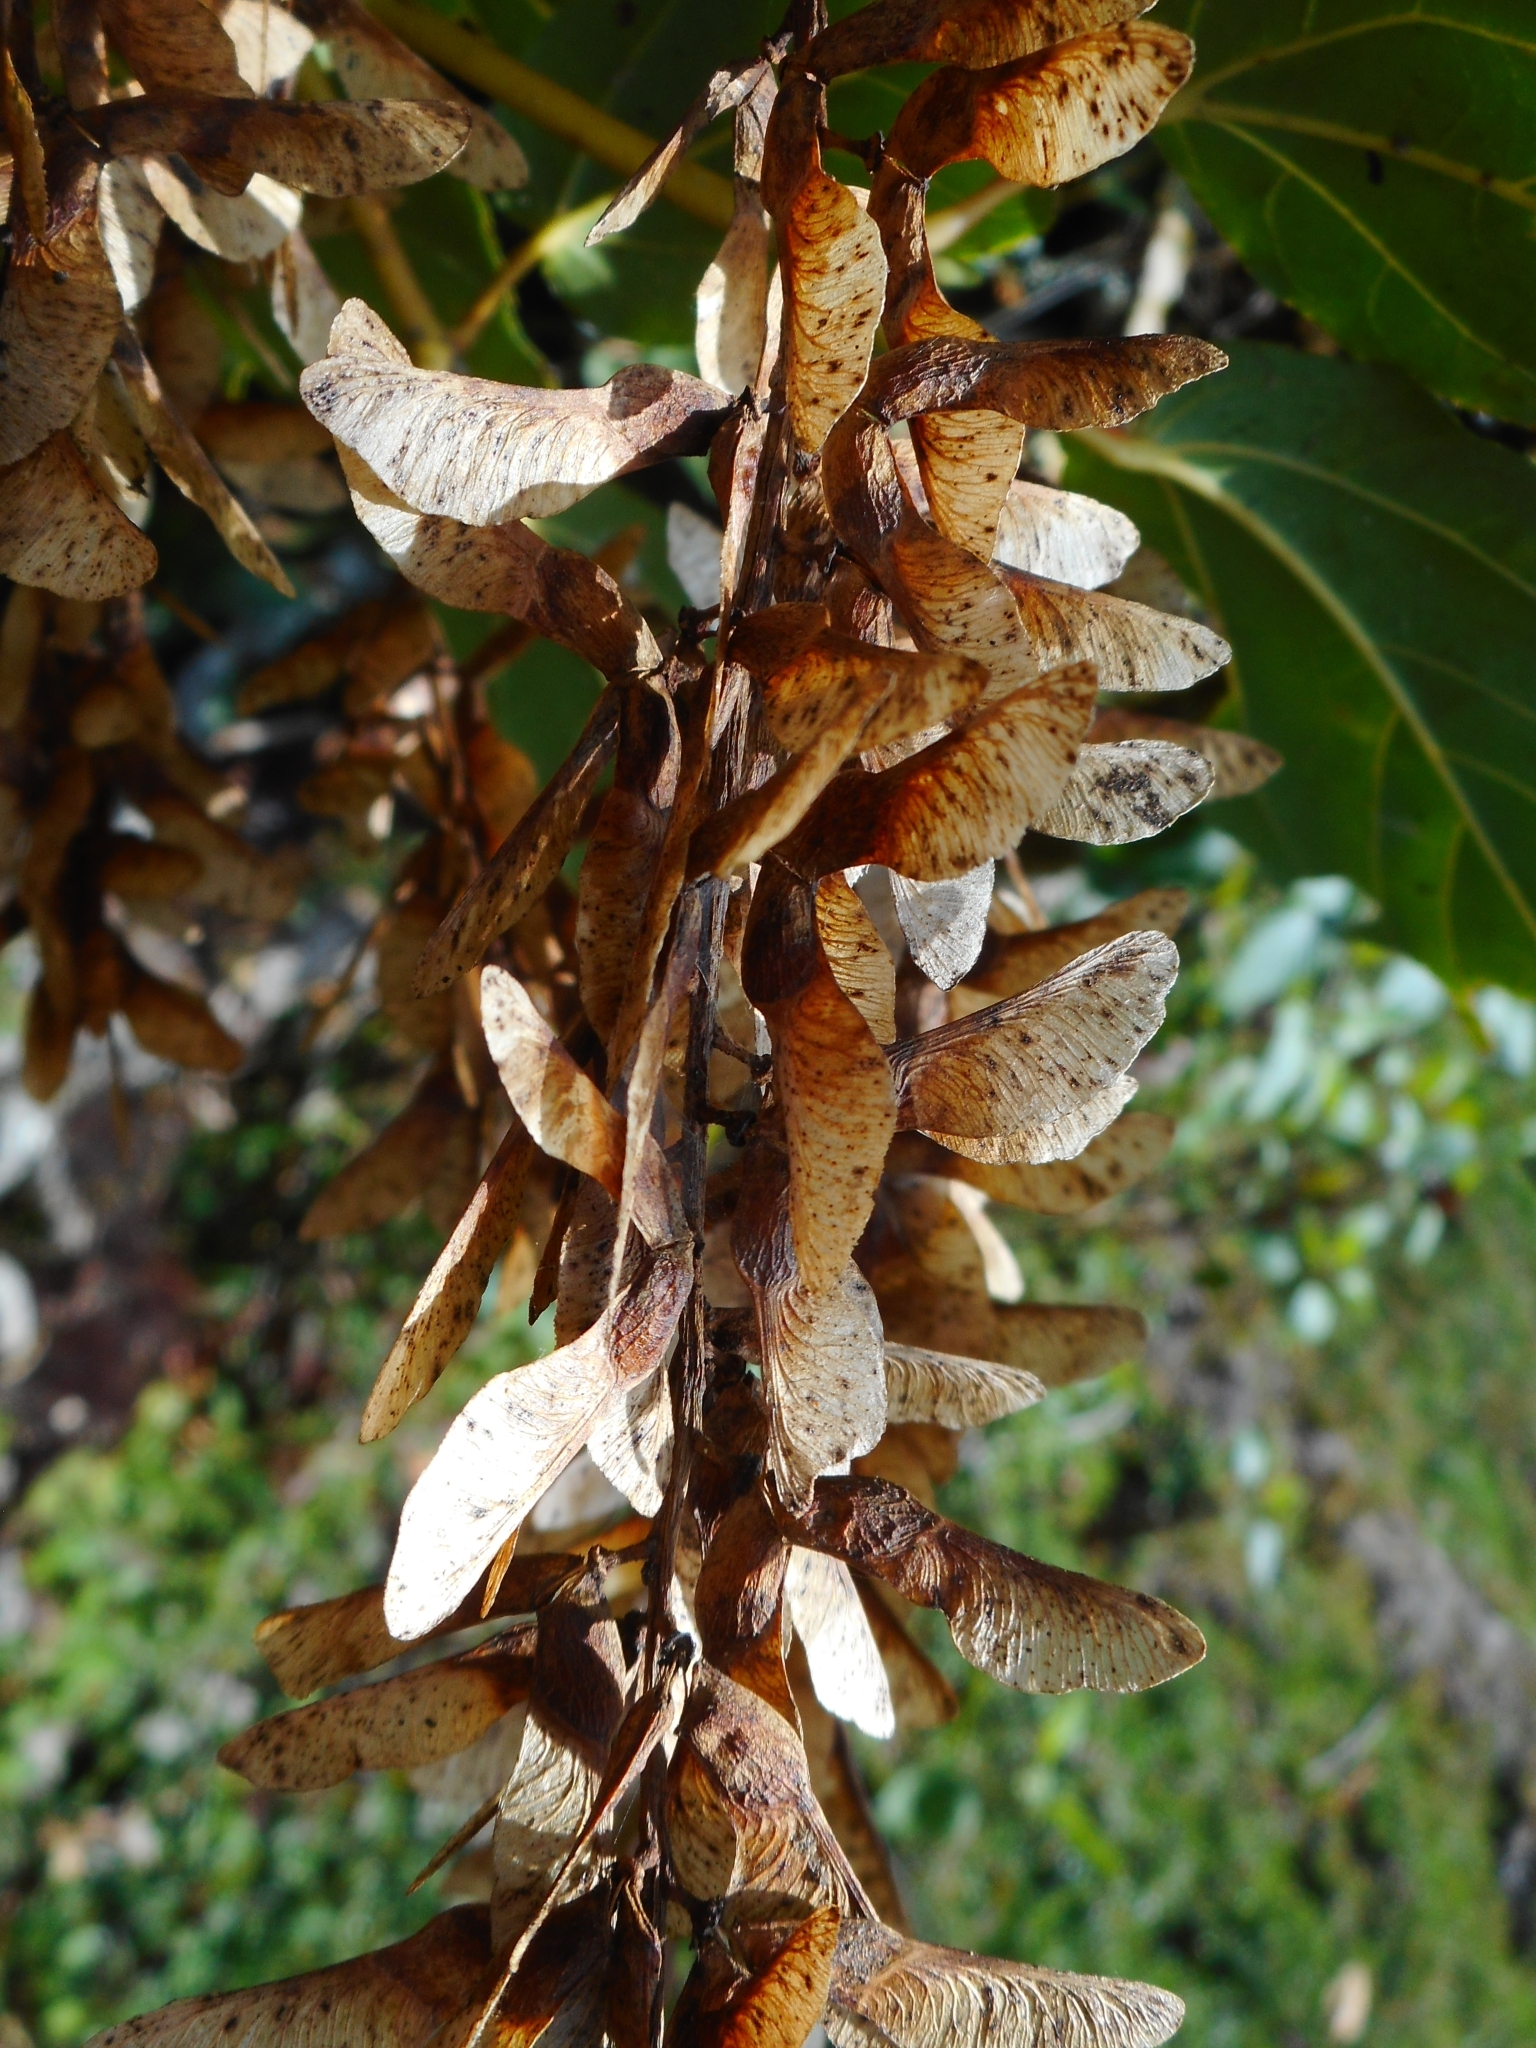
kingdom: Plantae
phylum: Tracheophyta
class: Magnoliopsida
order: Sapindales
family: Sapindaceae
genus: Acer
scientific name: Acer sikkimense
